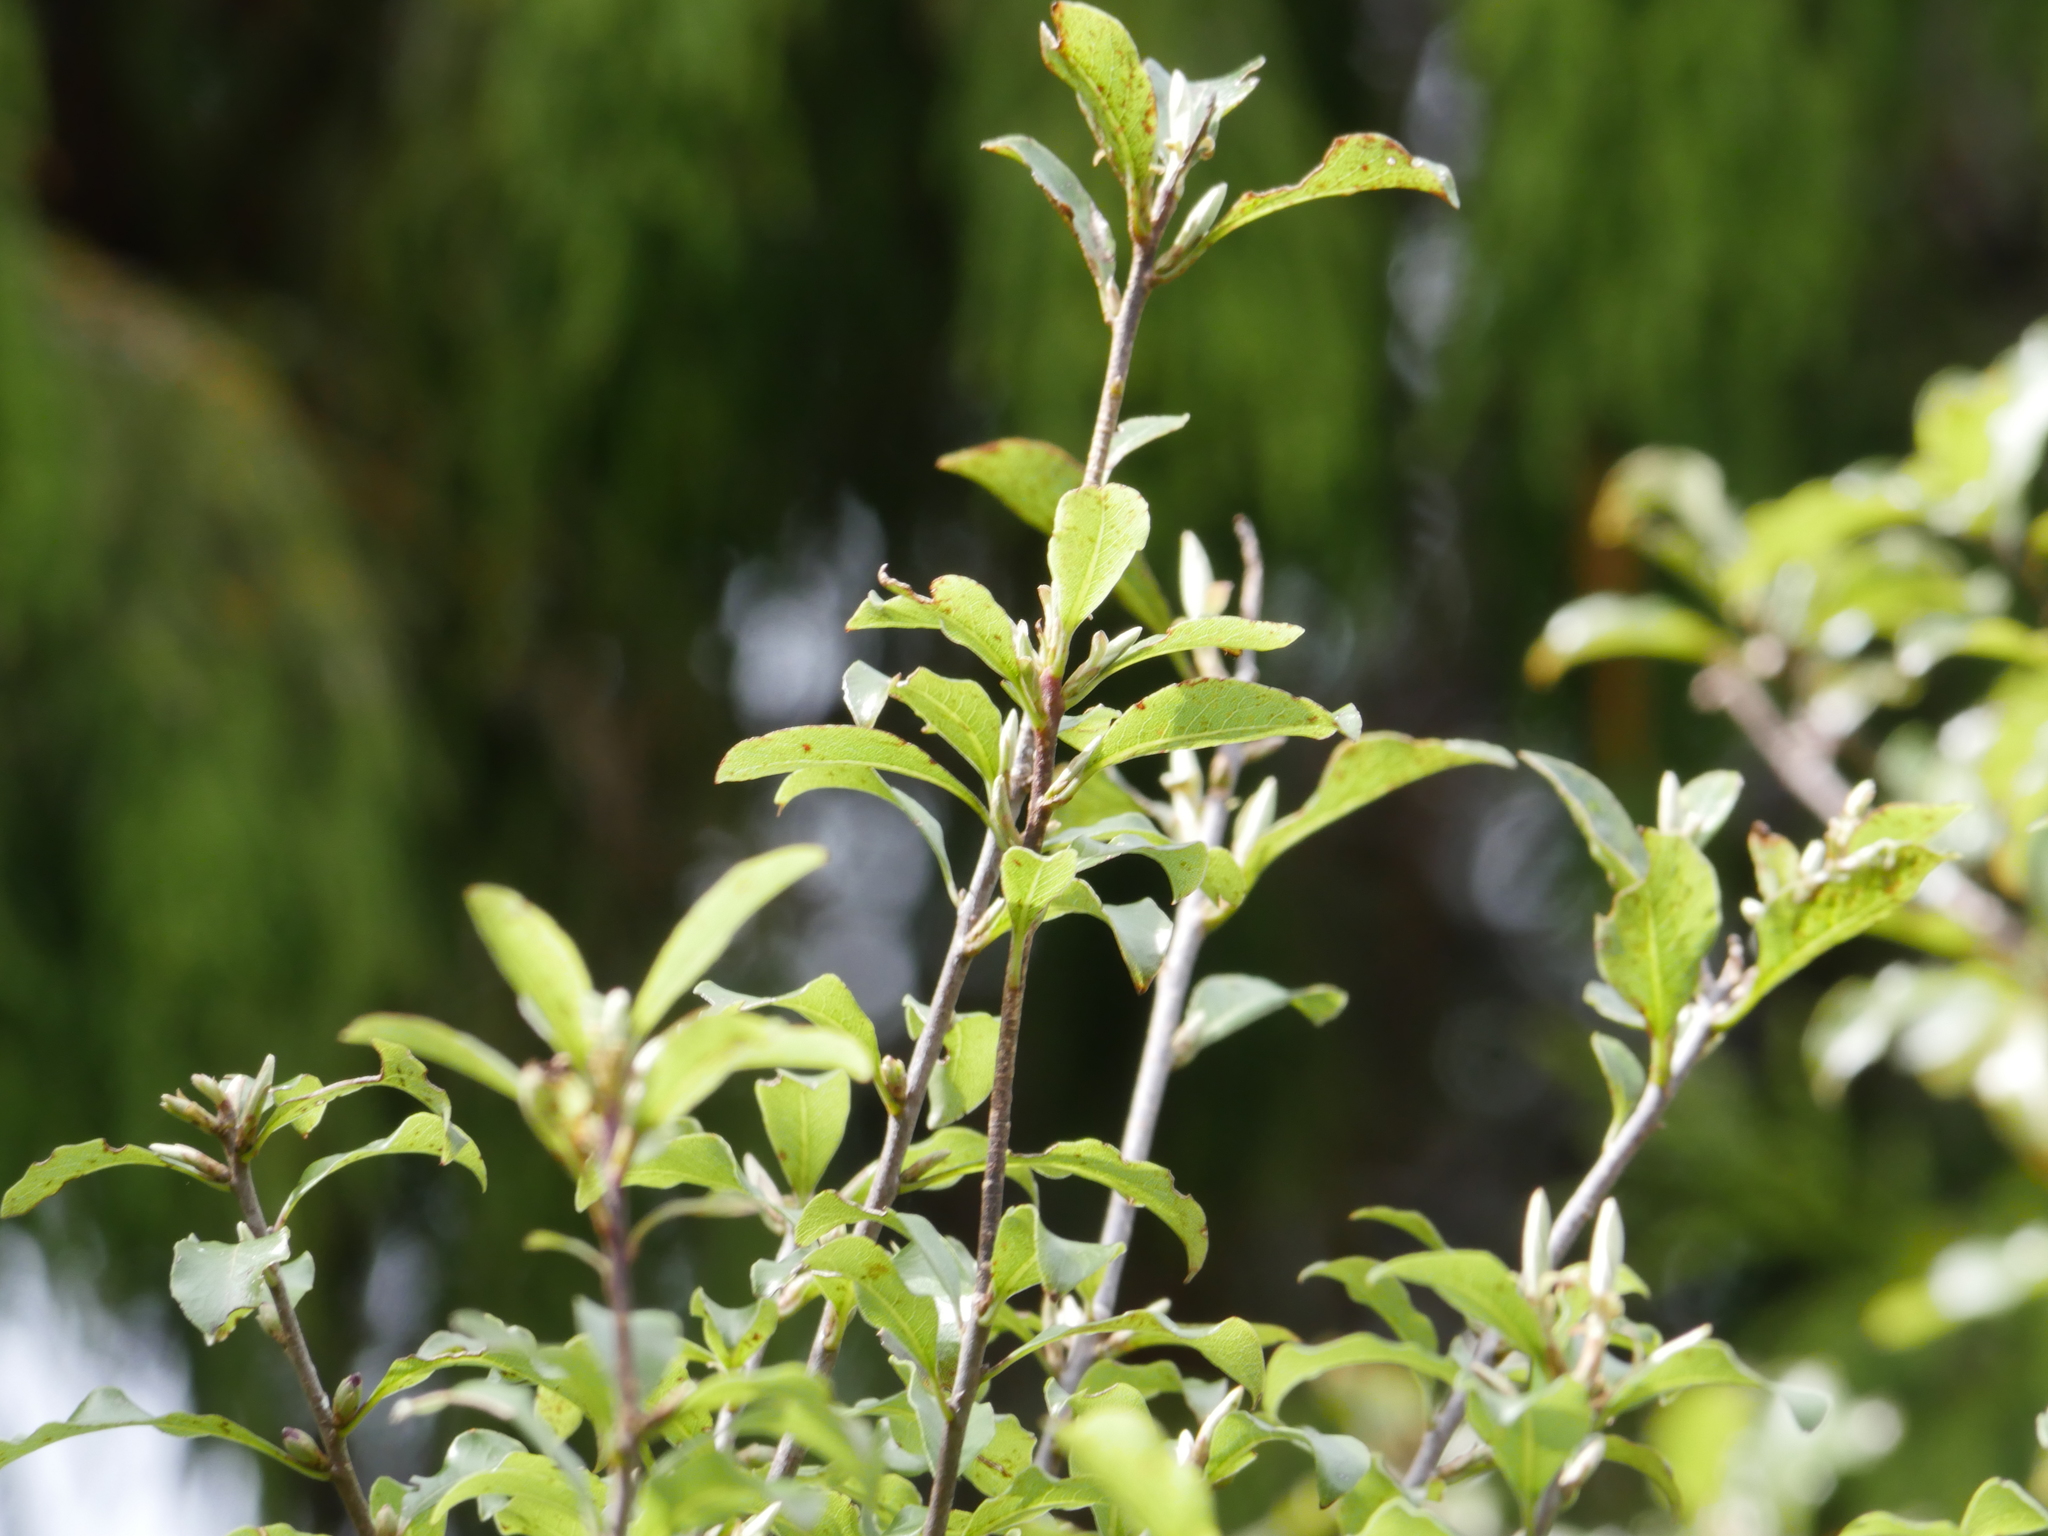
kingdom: Plantae
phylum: Tracheophyta
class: Magnoliopsida
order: Apiales
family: Pittosporaceae
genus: Pittosporum
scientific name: Pittosporum tenuifolium
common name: Kohuhu
